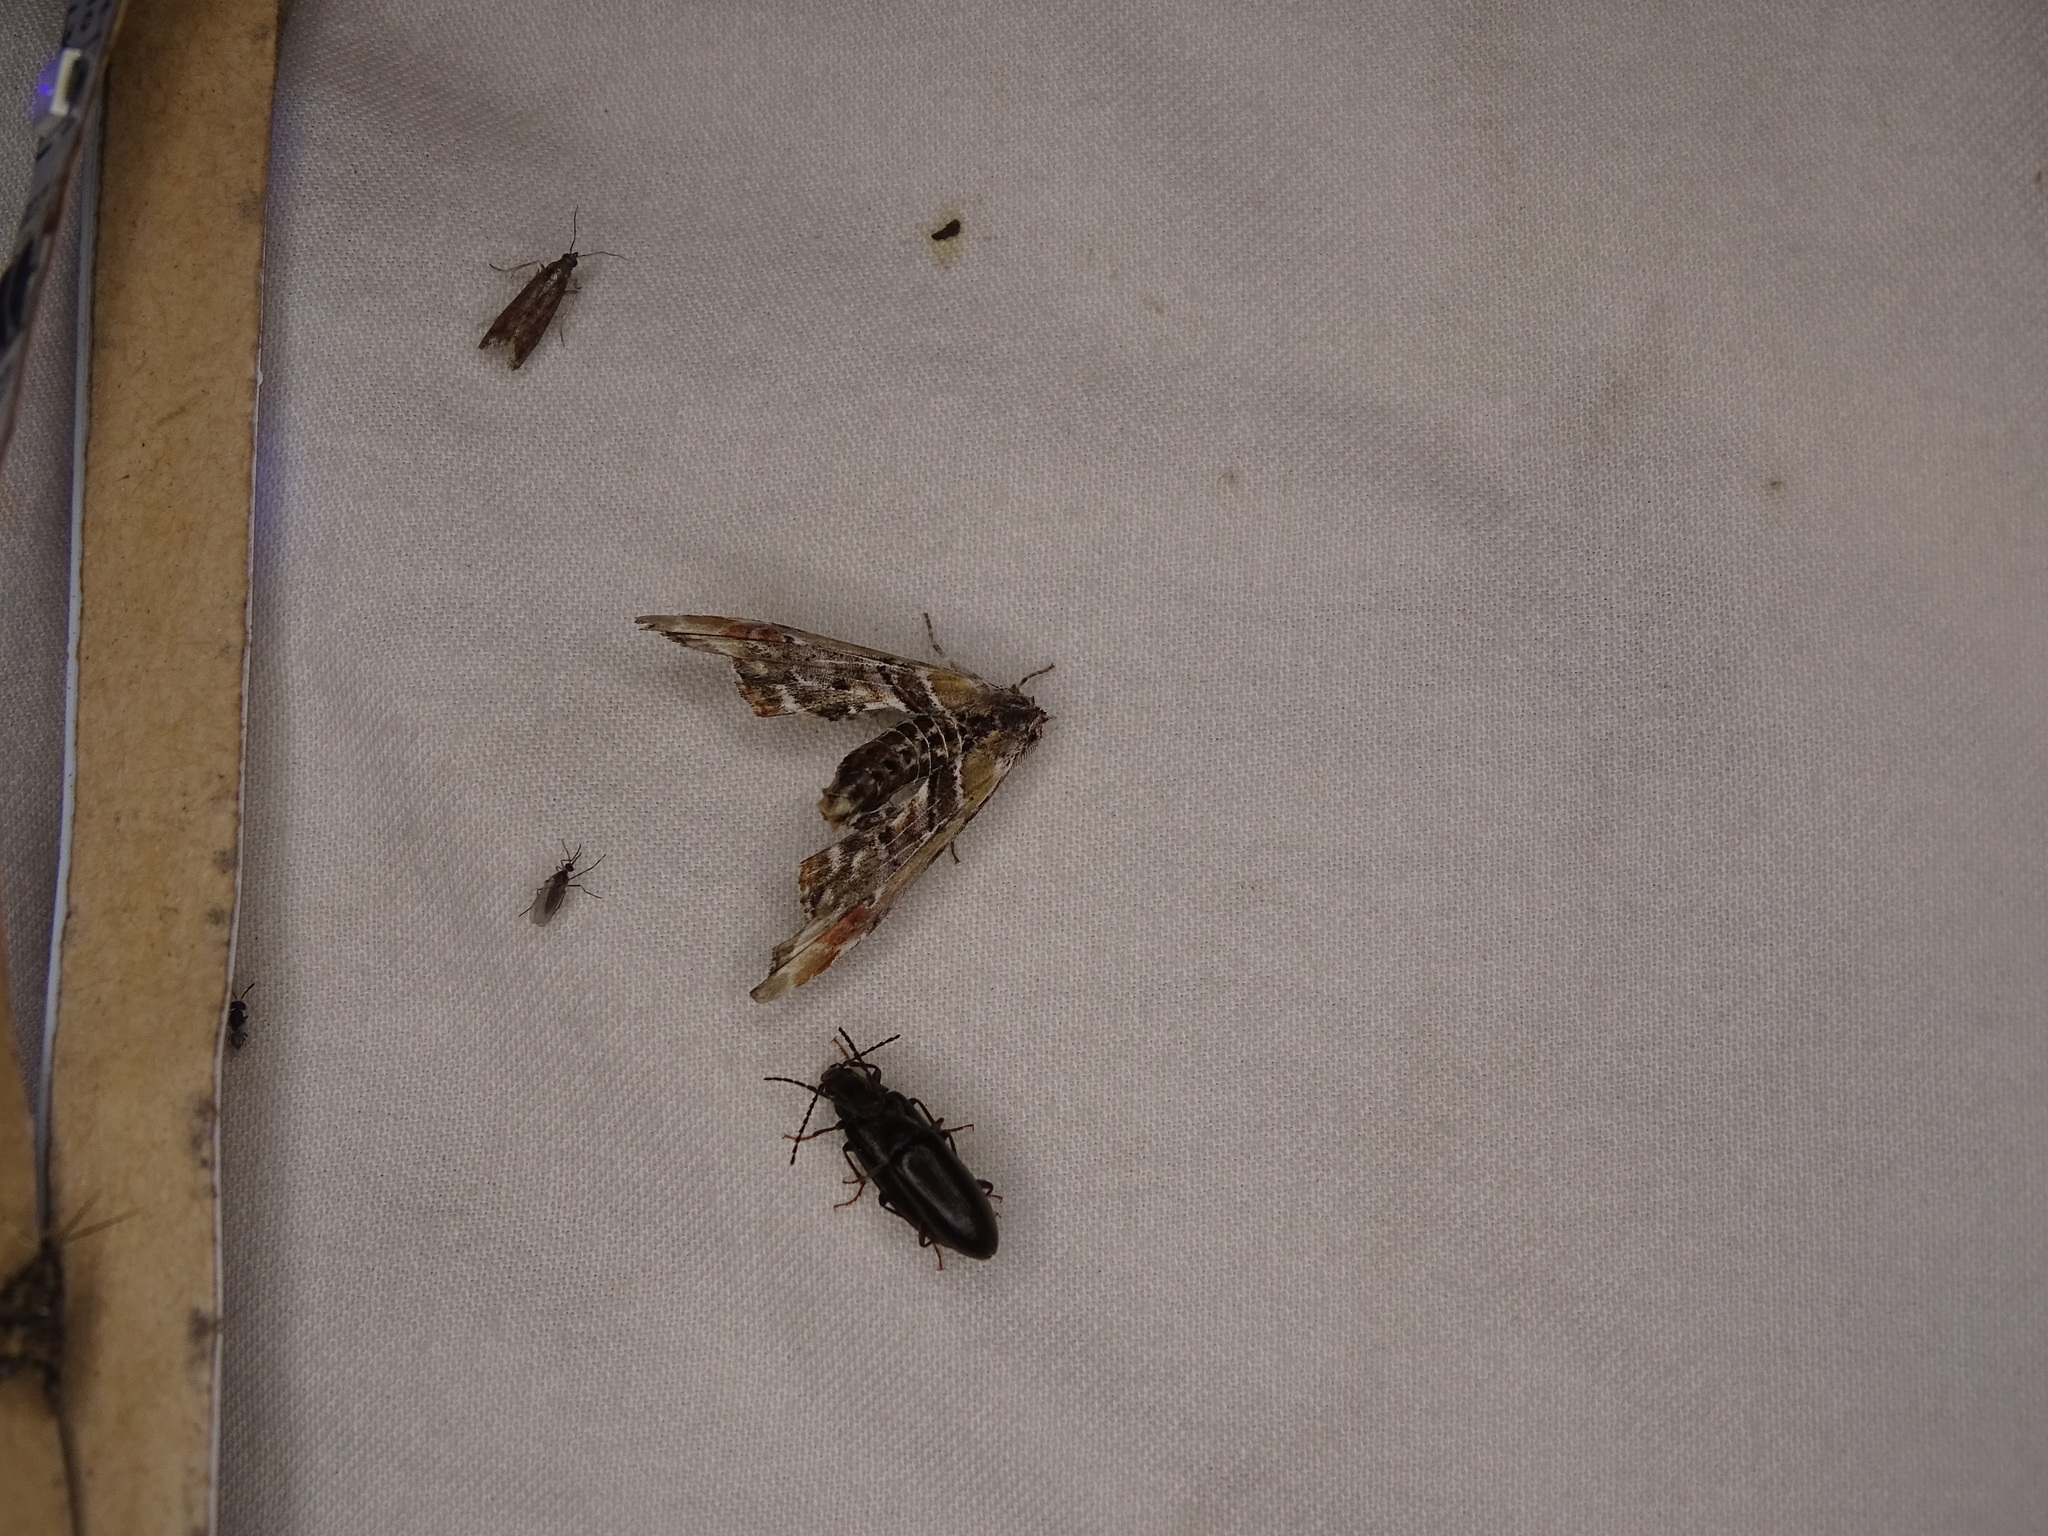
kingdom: Animalia
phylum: Arthropoda
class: Insecta
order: Lepidoptera
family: Euteliidae
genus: Marathyssa
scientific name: Marathyssa basalis
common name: Light marathyssa moth
